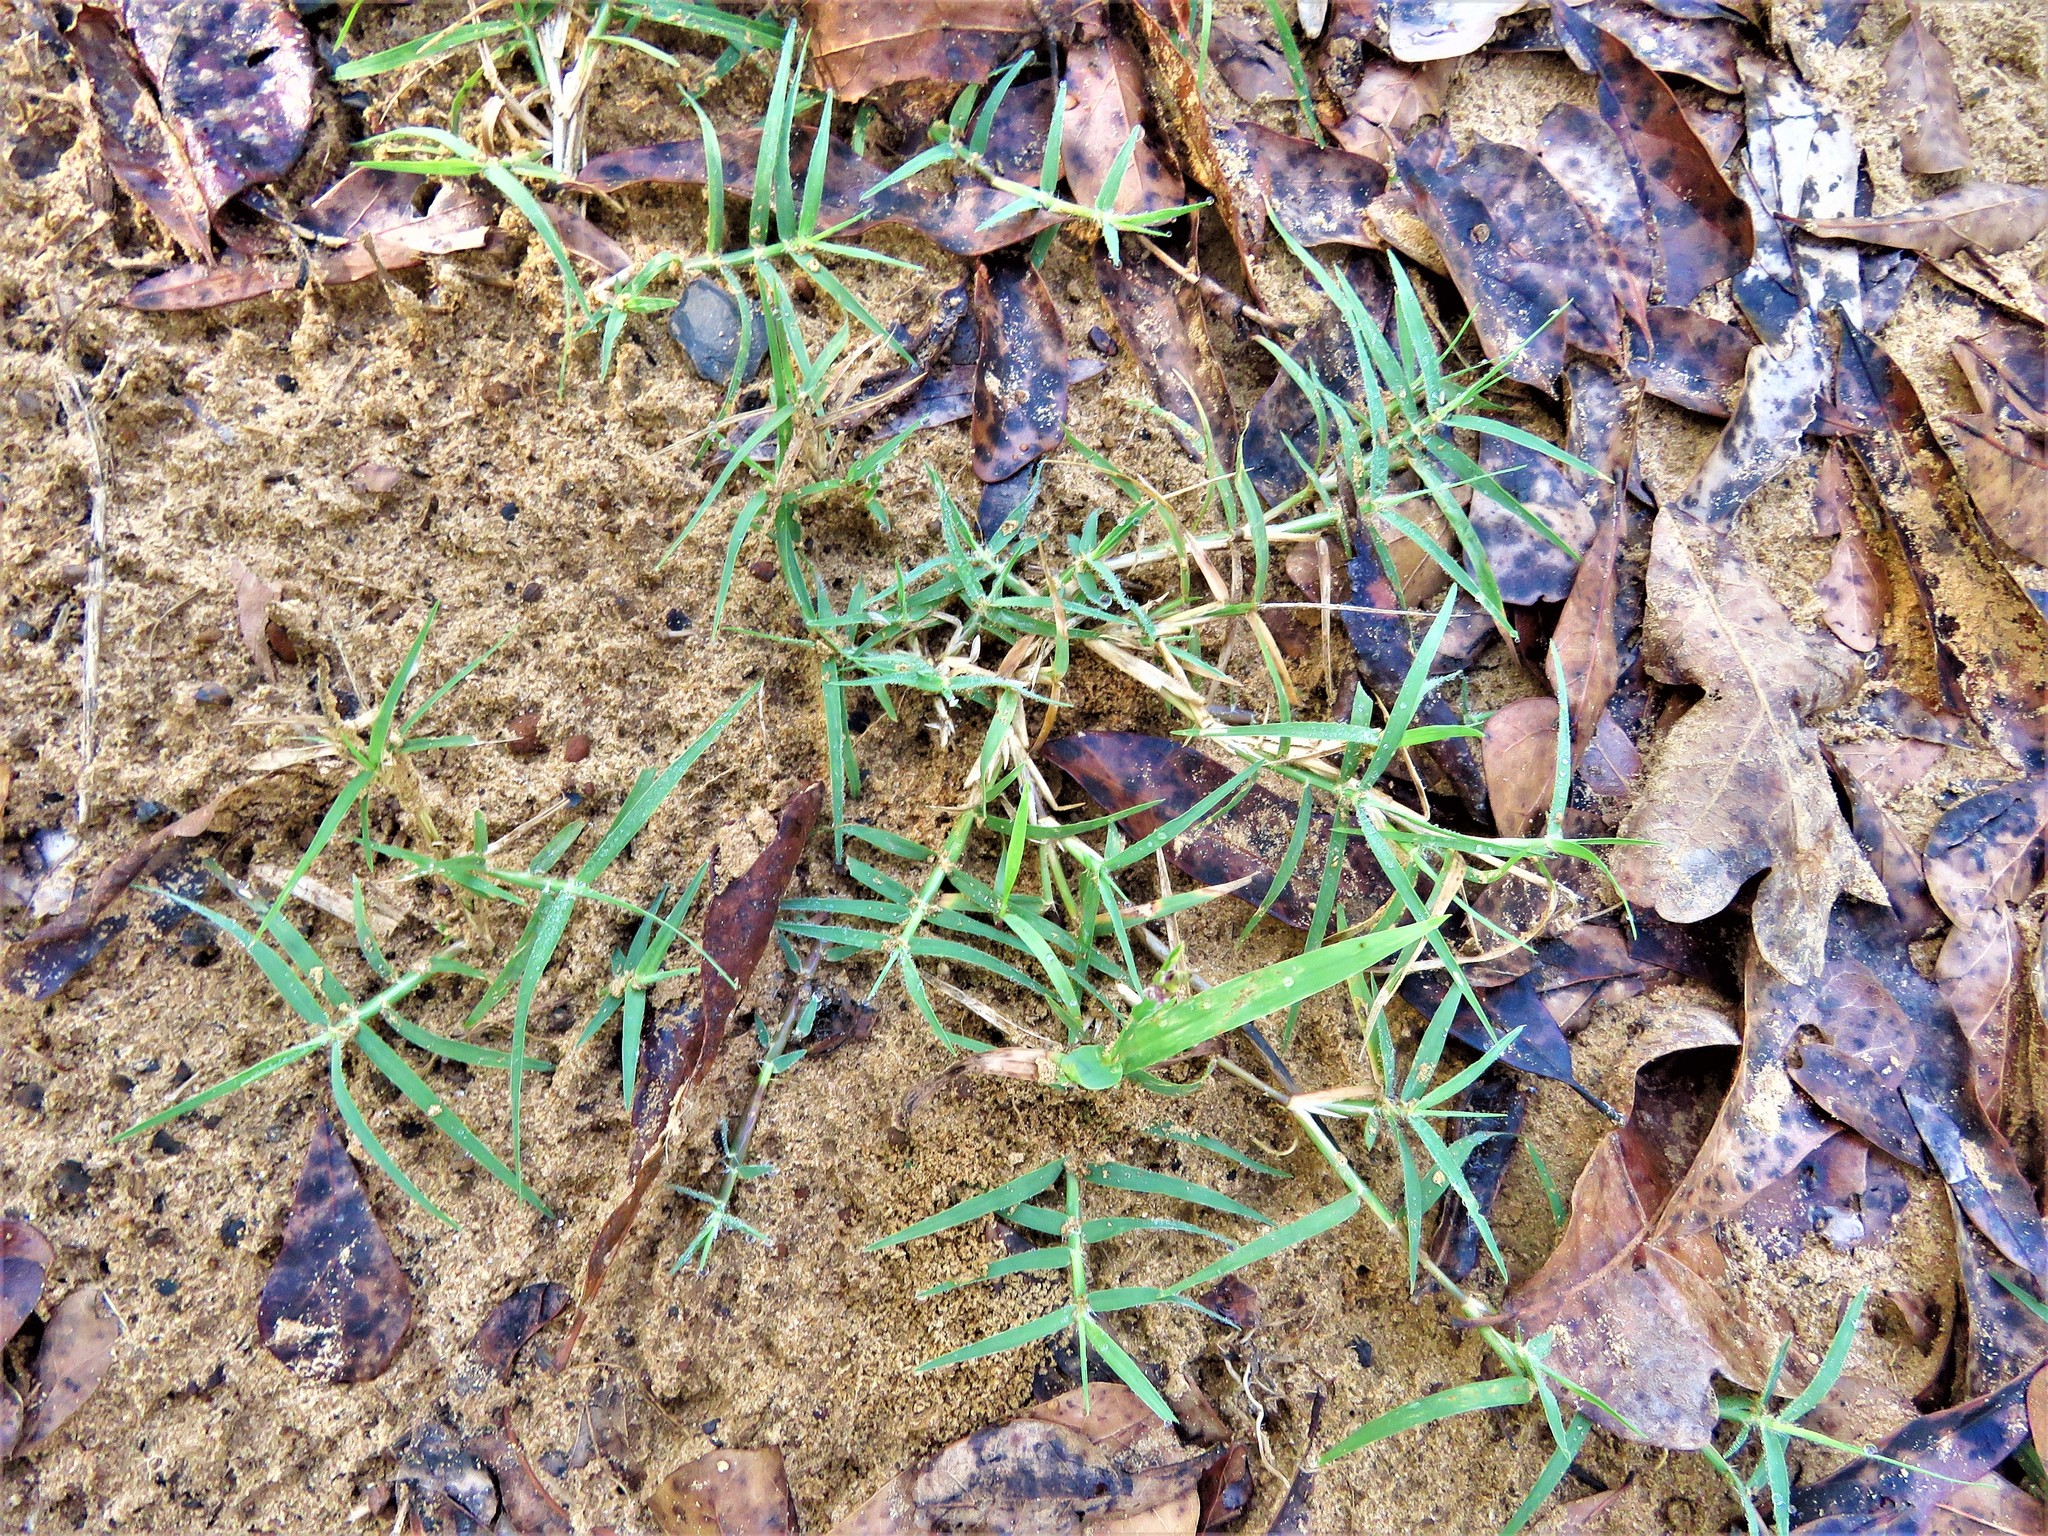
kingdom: Plantae
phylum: Tracheophyta
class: Liliopsida
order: Poales
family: Poaceae
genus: Cynodon
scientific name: Cynodon dactylon
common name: Bermuda grass
